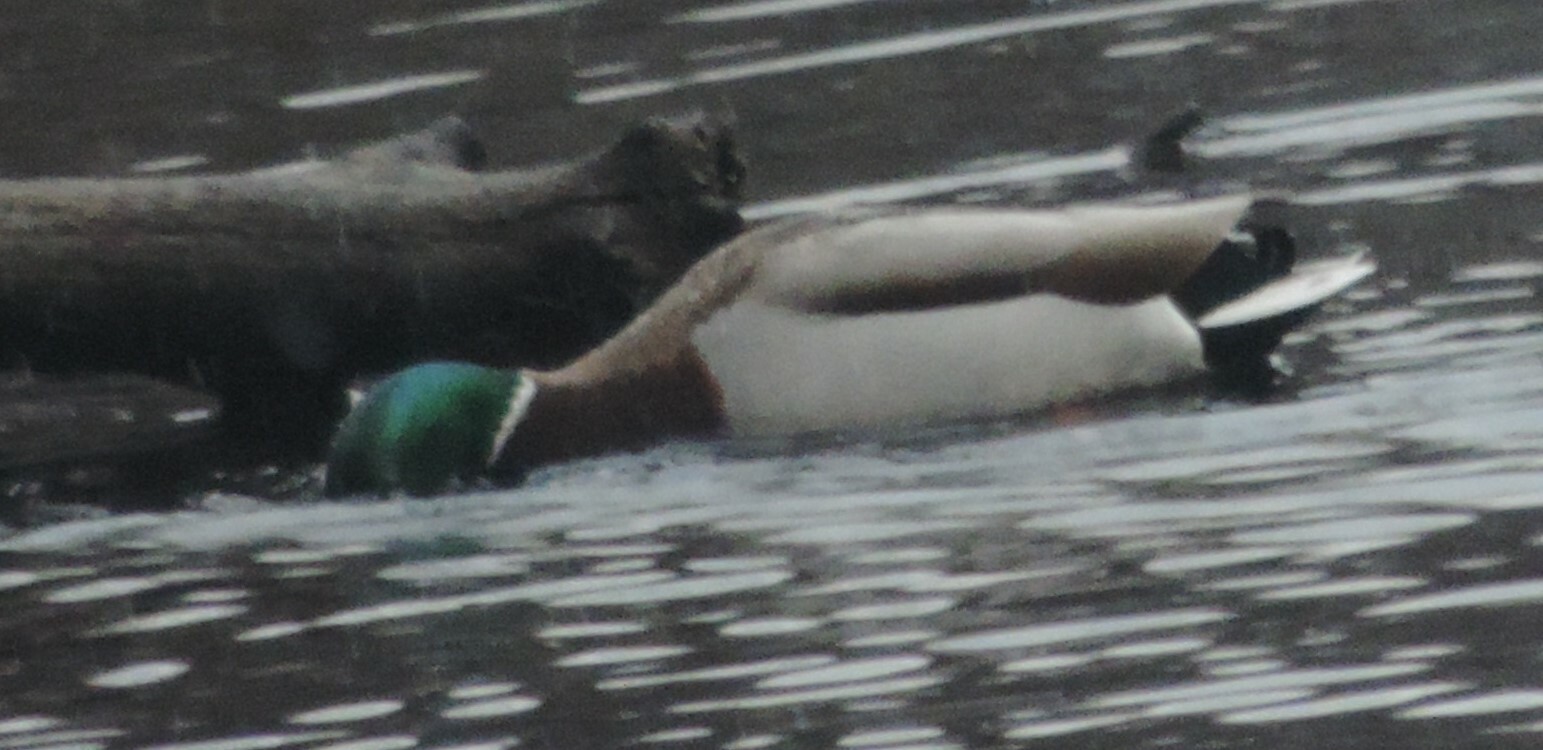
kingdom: Animalia
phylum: Chordata
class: Aves
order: Anseriformes
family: Anatidae
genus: Anas
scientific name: Anas platyrhynchos
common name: Mallard
